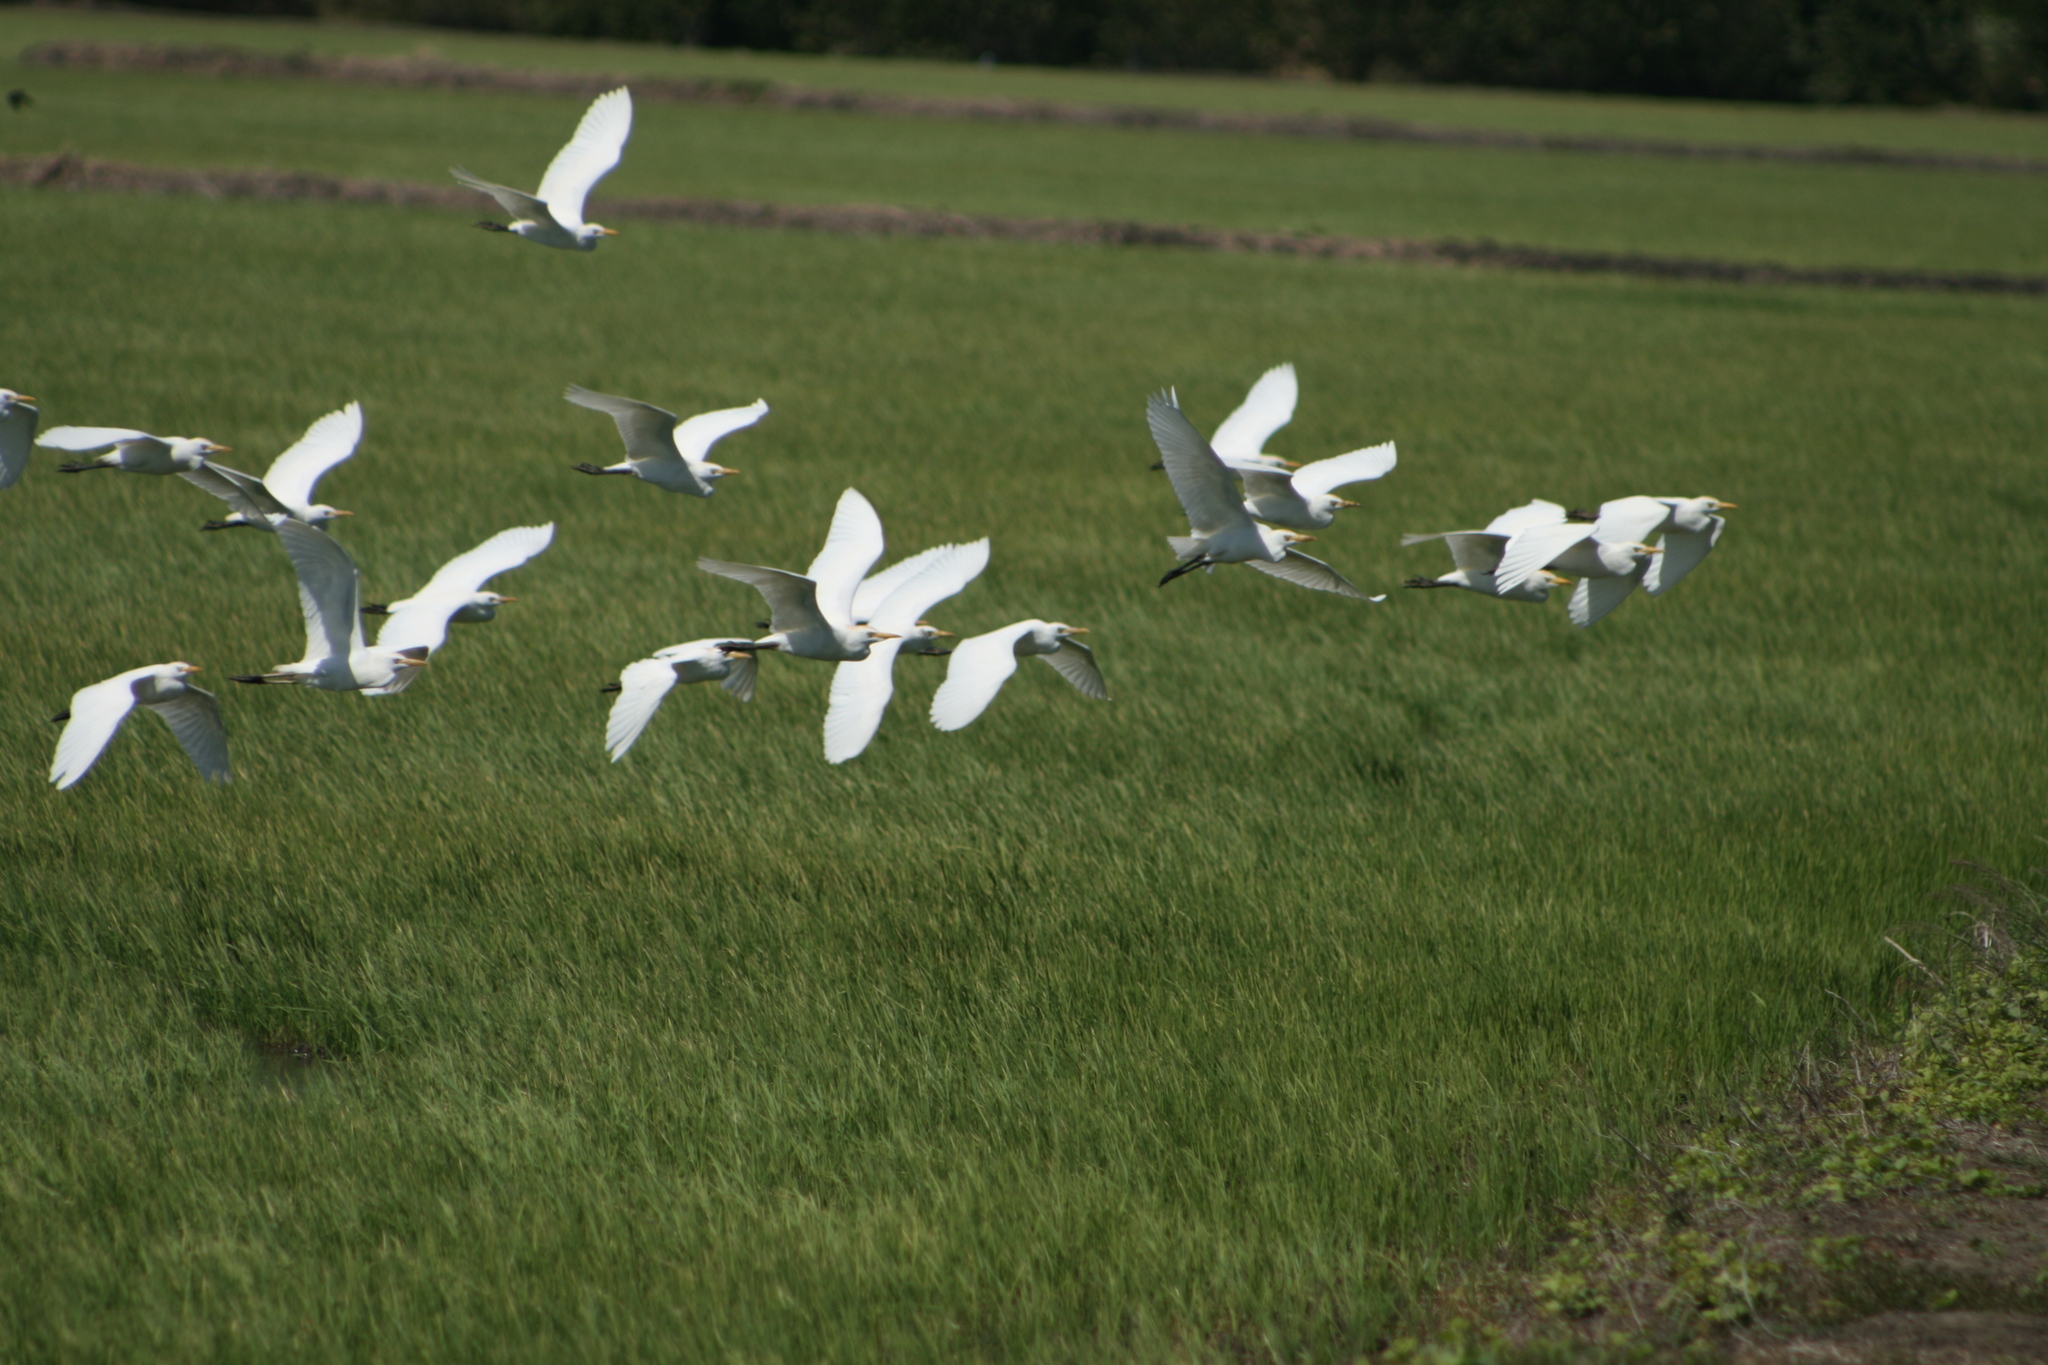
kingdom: Animalia
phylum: Chordata
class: Aves
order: Pelecaniformes
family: Ardeidae
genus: Bubulcus
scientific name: Bubulcus ibis
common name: Cattle egret
